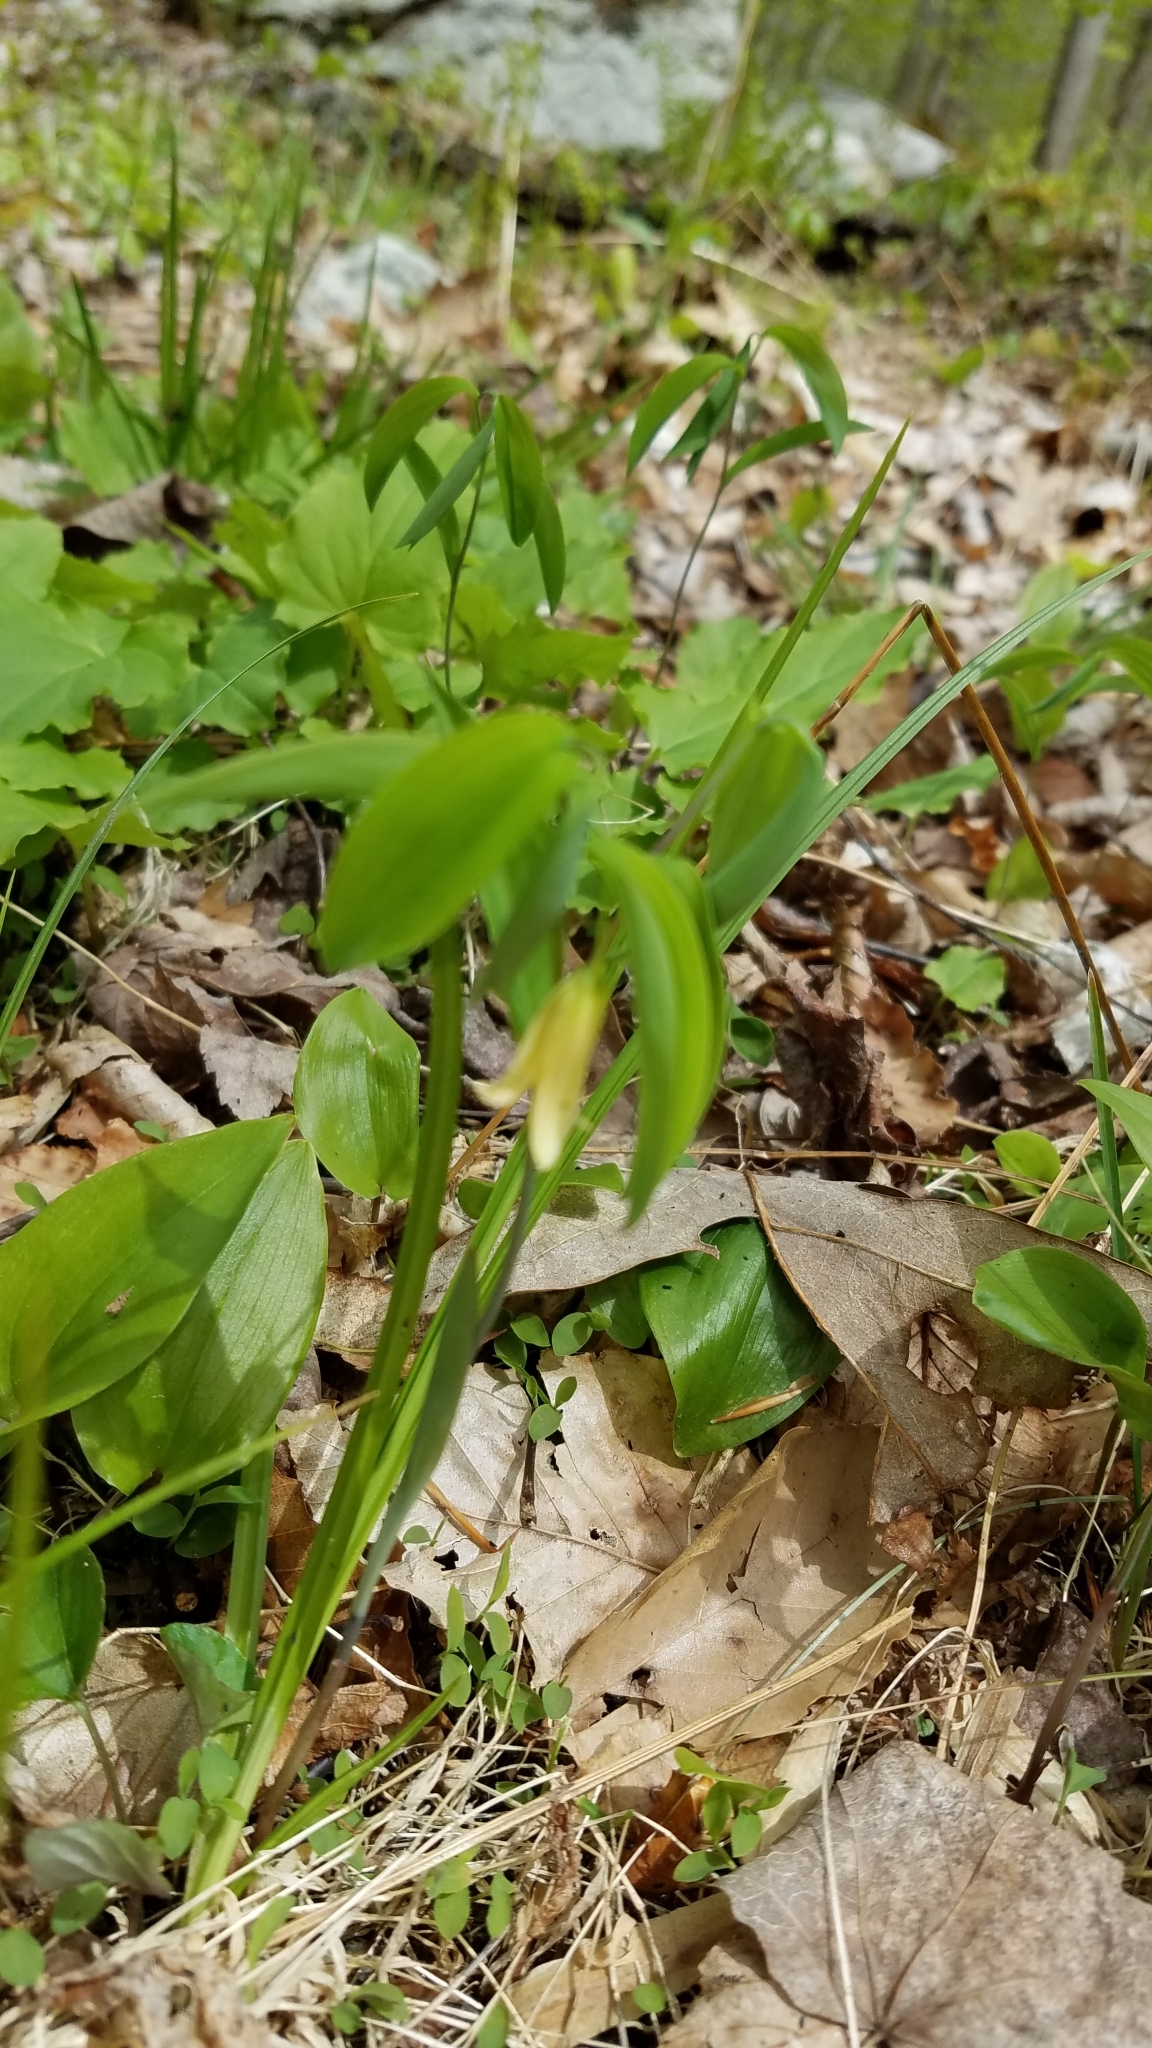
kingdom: Plantae
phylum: Tracheophyta
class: Liliopsida
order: Liliales
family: Colchicaceae
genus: Uvularia
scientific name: Uvularia sessilifolia
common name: Straw-lily
